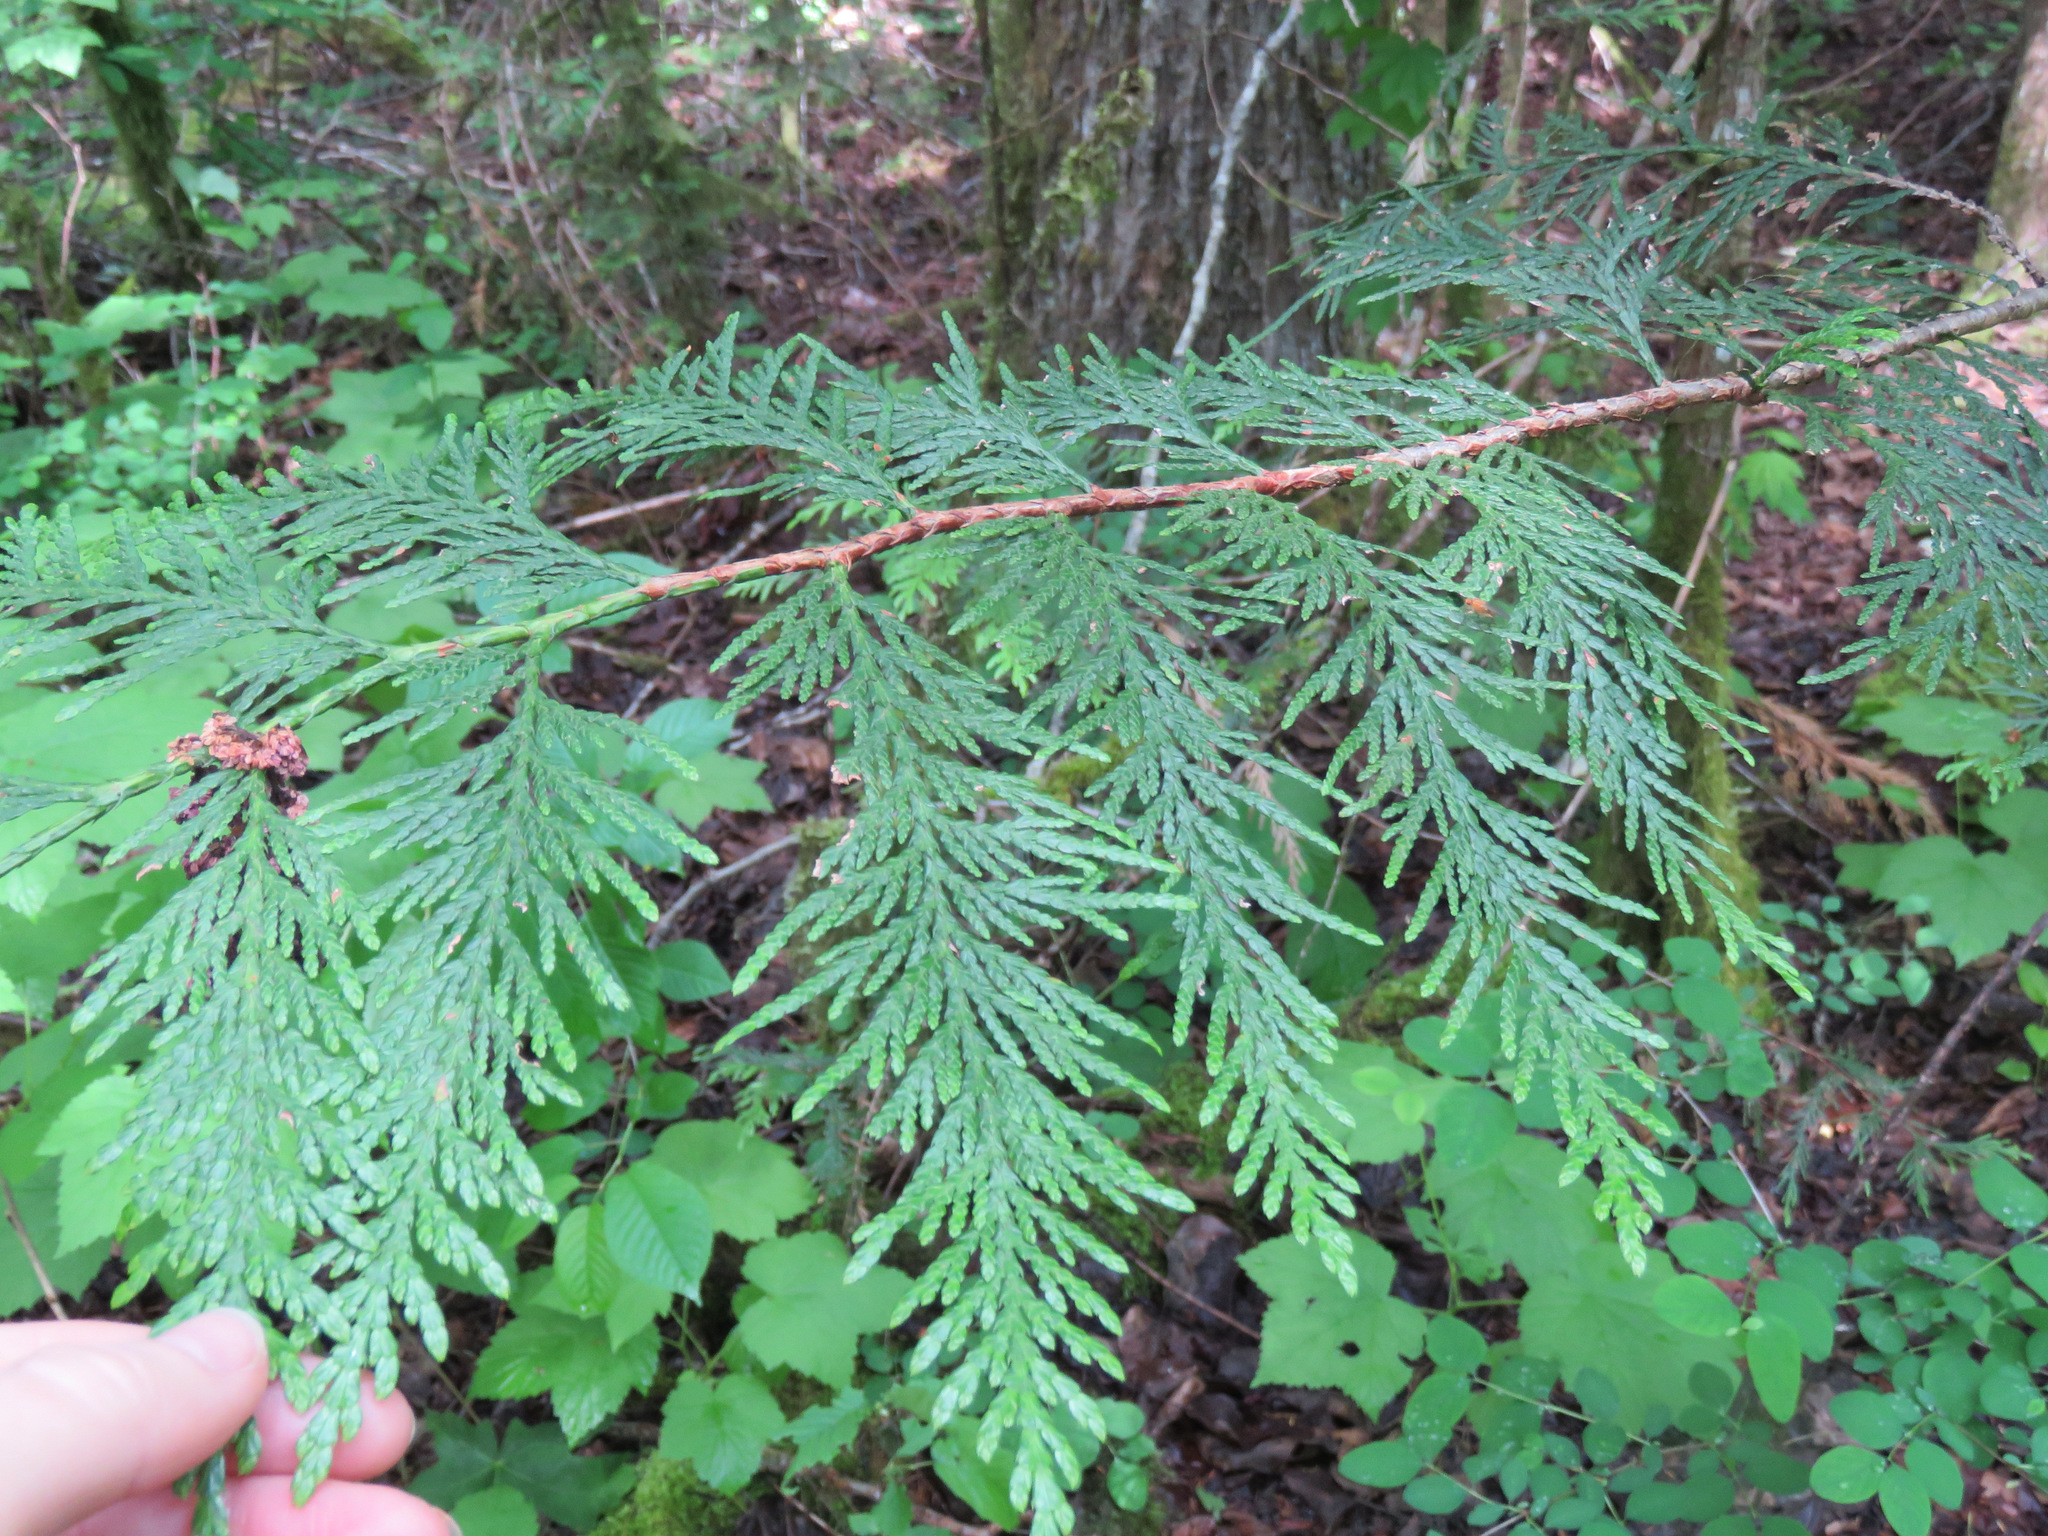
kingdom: Plantae
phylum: Tracheophyta
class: Pinopsida
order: Pinales
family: Cupressaceae
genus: Thuja
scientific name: Thuja plicata
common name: Western red-cedar
